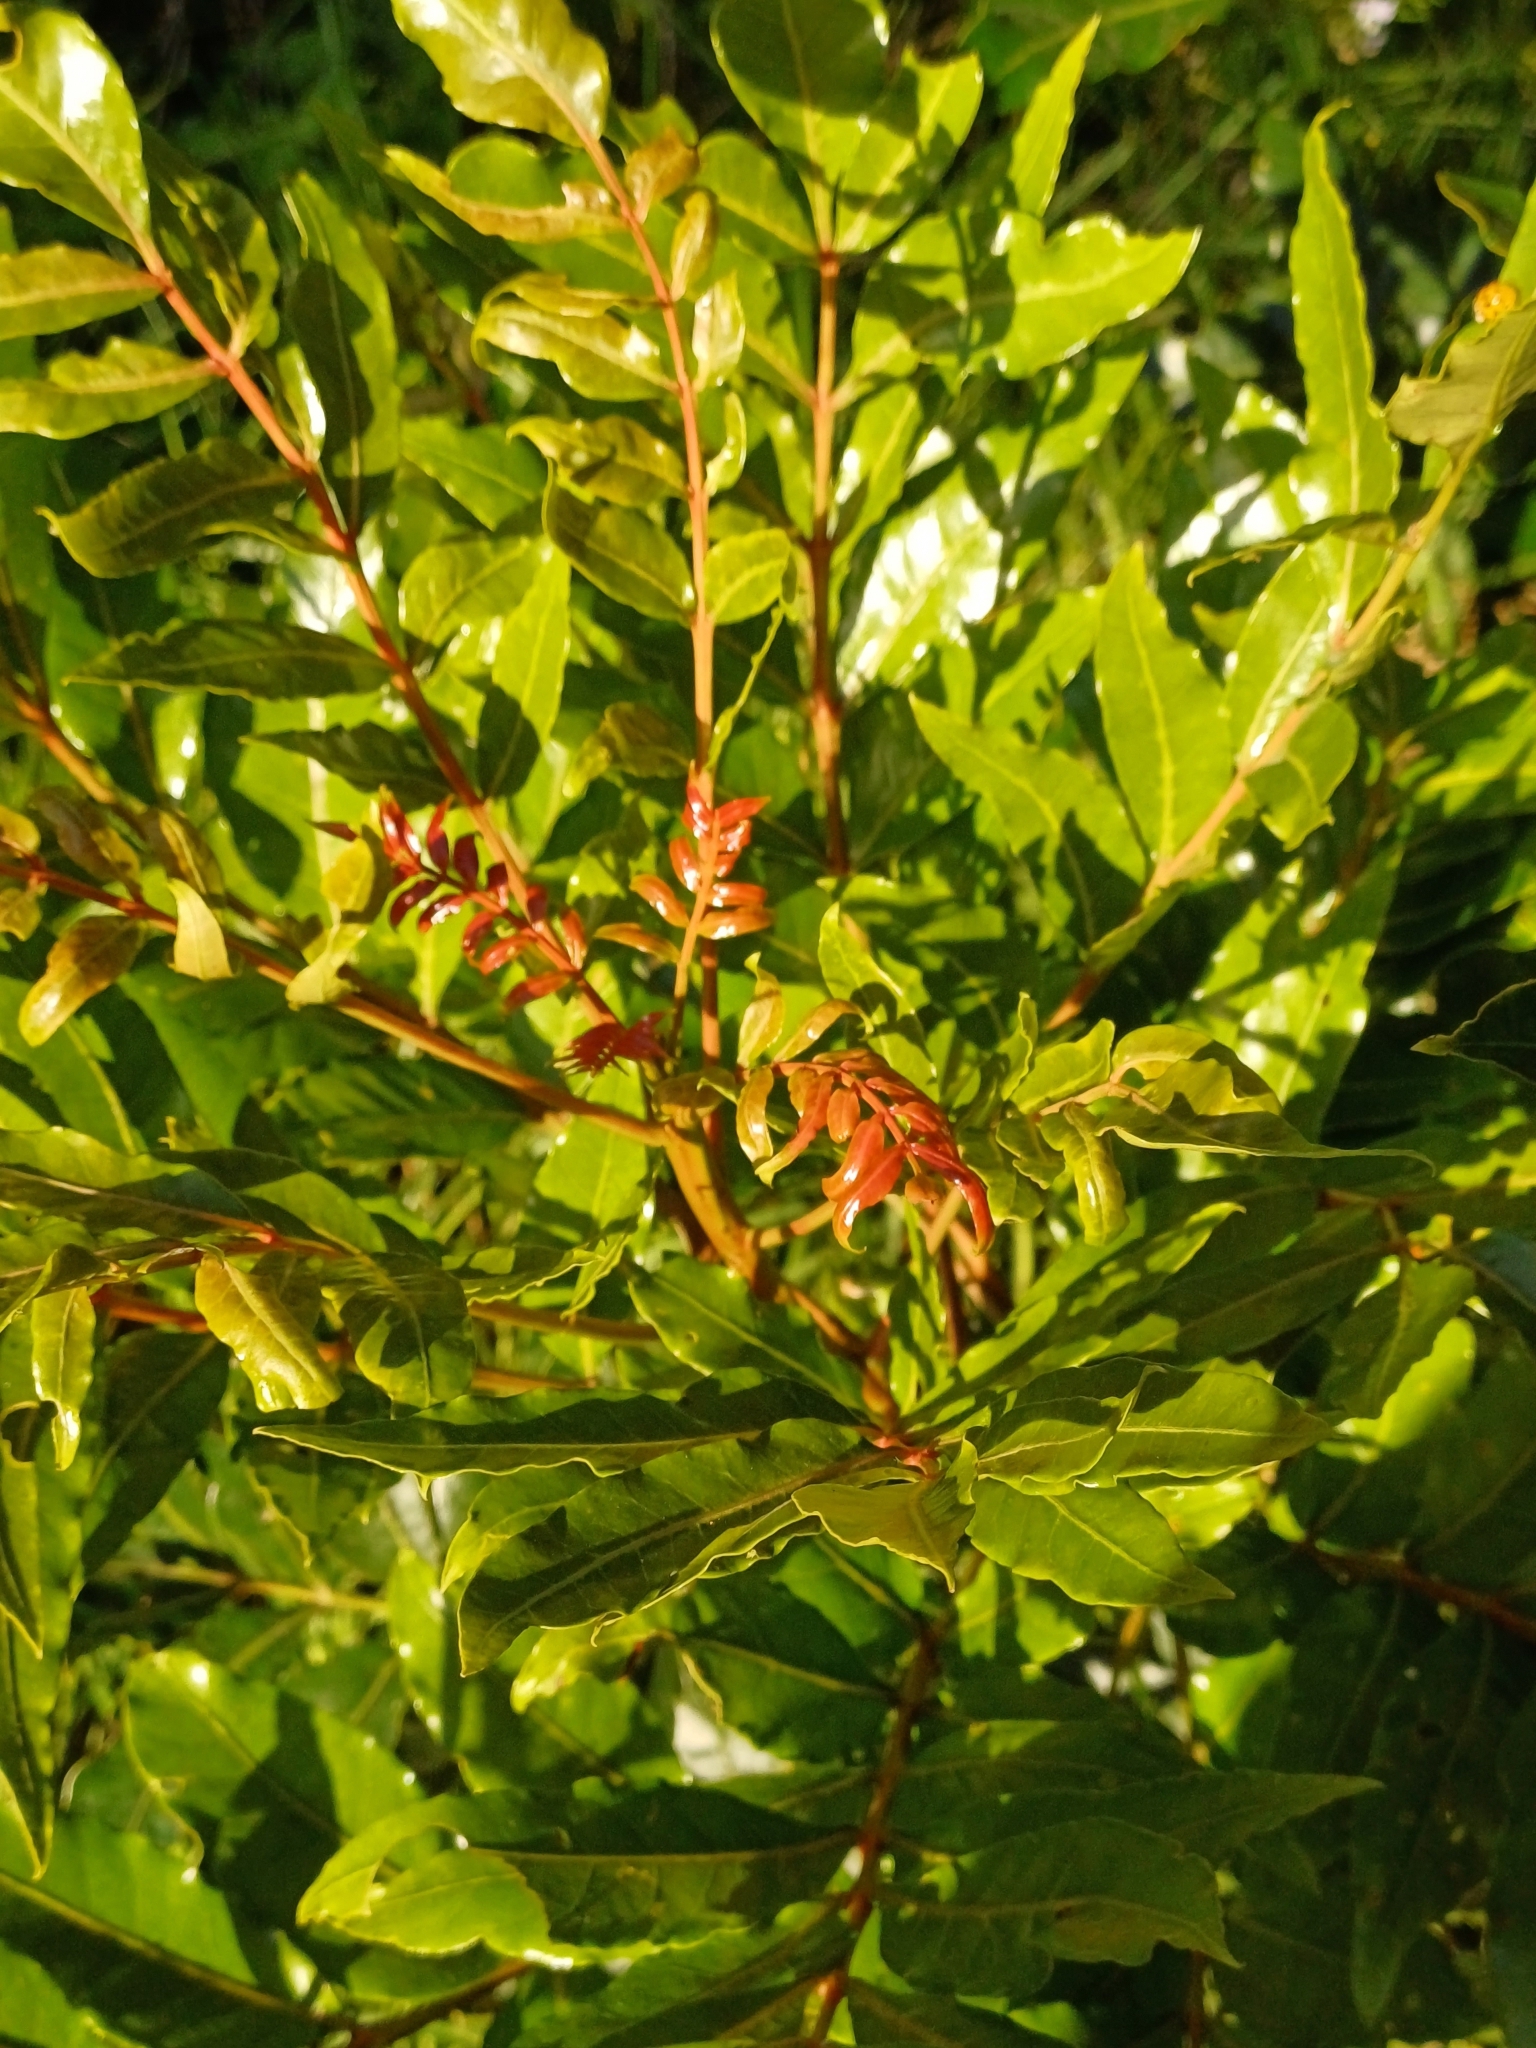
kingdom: Plantae
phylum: Tracheophyta
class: Magnoliopsida
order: Sapindales
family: Anacardiaceae
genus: Harpephyllum
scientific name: Harpephyllum caffrum
